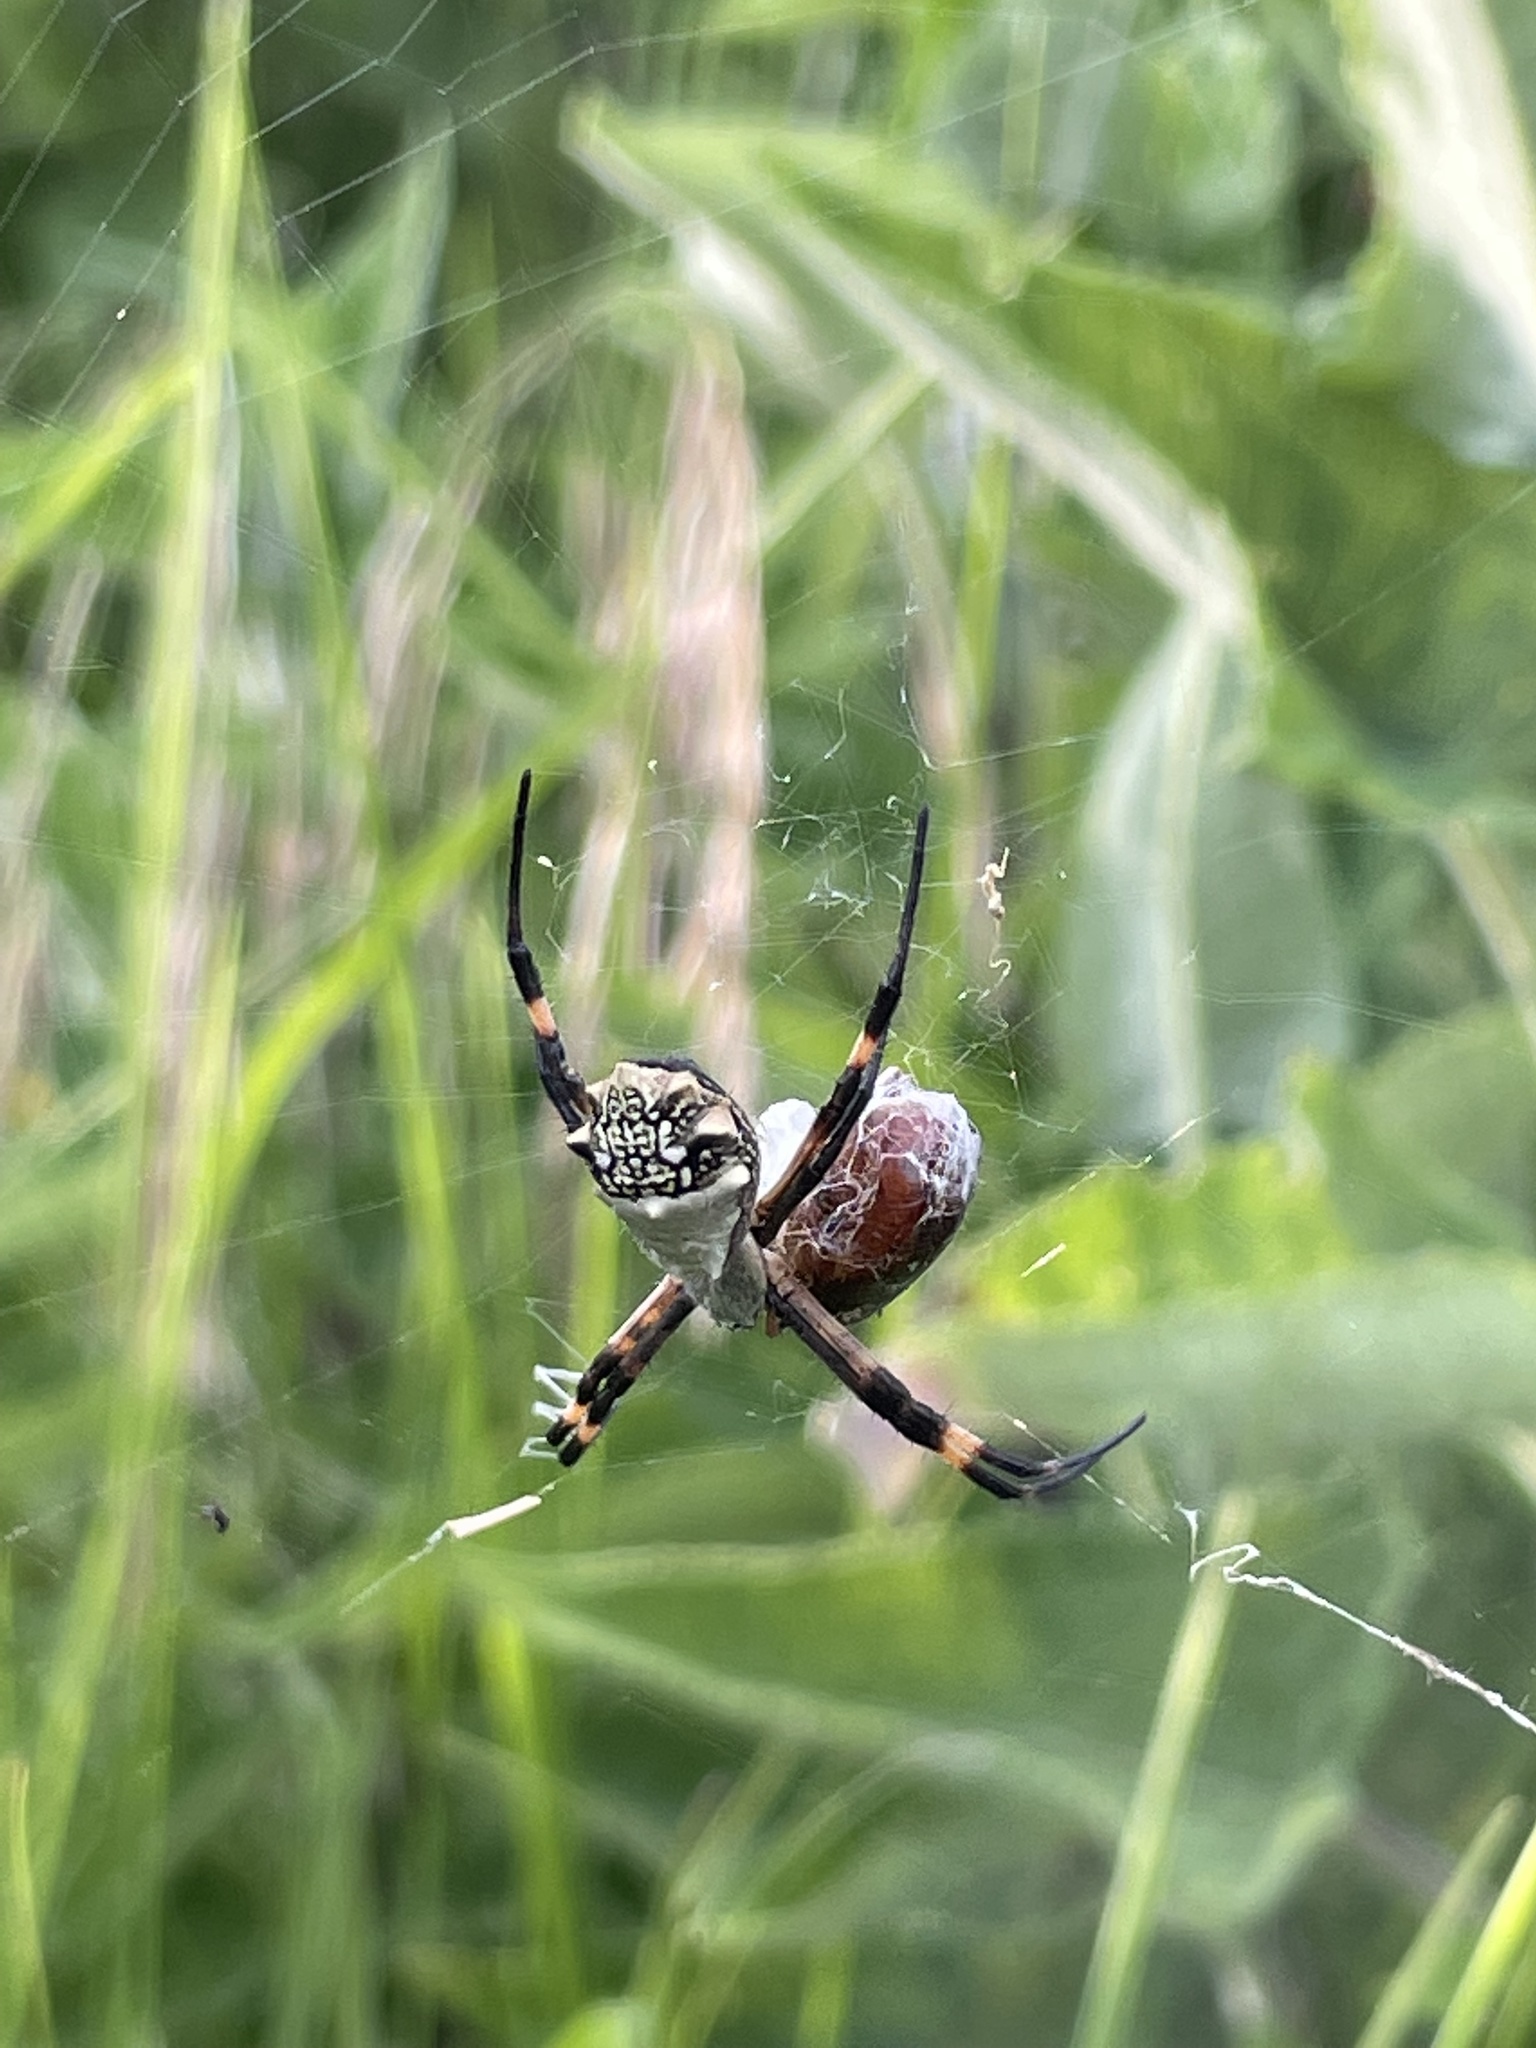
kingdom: Animalia
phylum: Arthropoda
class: Arachnida
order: Araneae
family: Araneidae
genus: Argiope
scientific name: Argiope argentata
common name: Orb weavers
